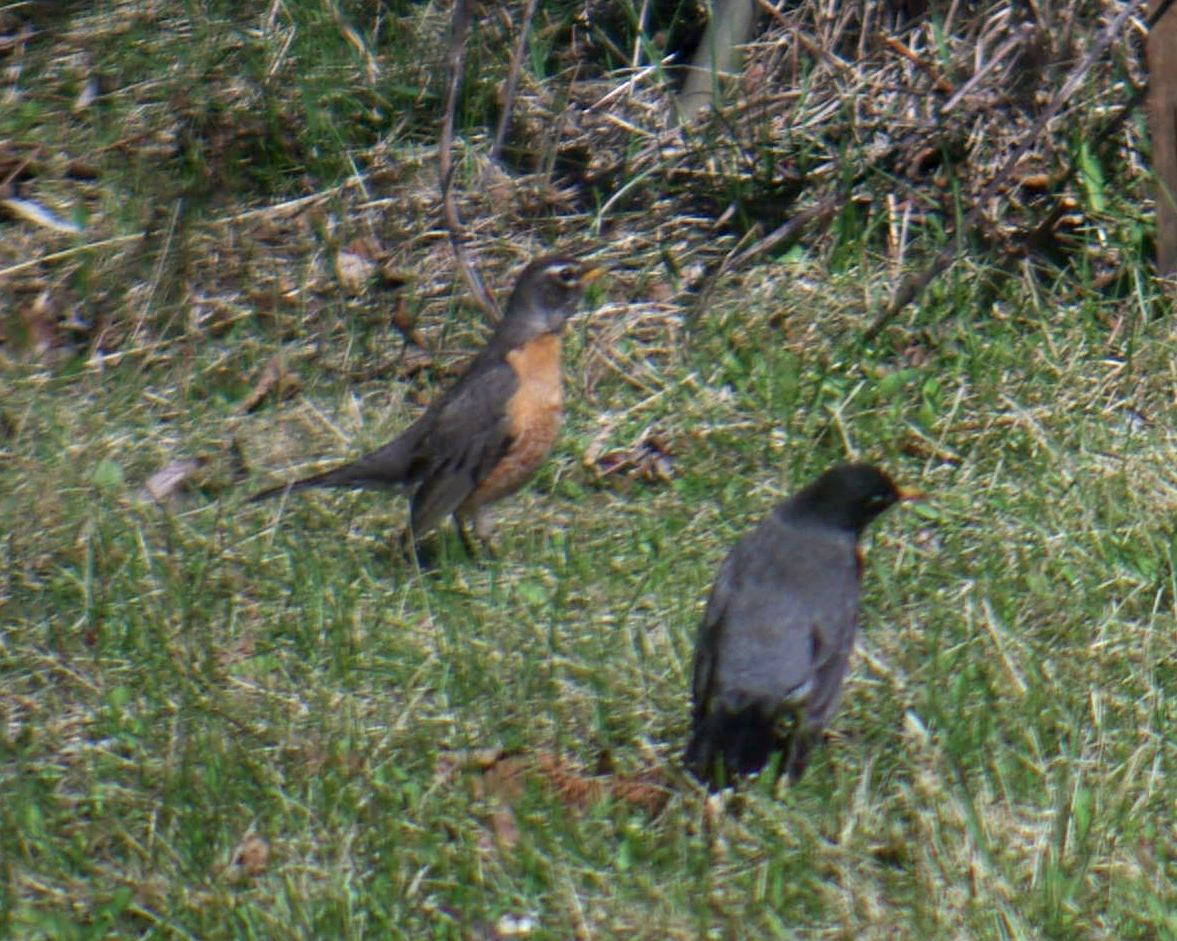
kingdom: Animalia
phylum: Chordata
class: Aves
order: Passeriformes
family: Turdidae
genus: Turdus
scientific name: Turdus migratorius
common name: American robin
